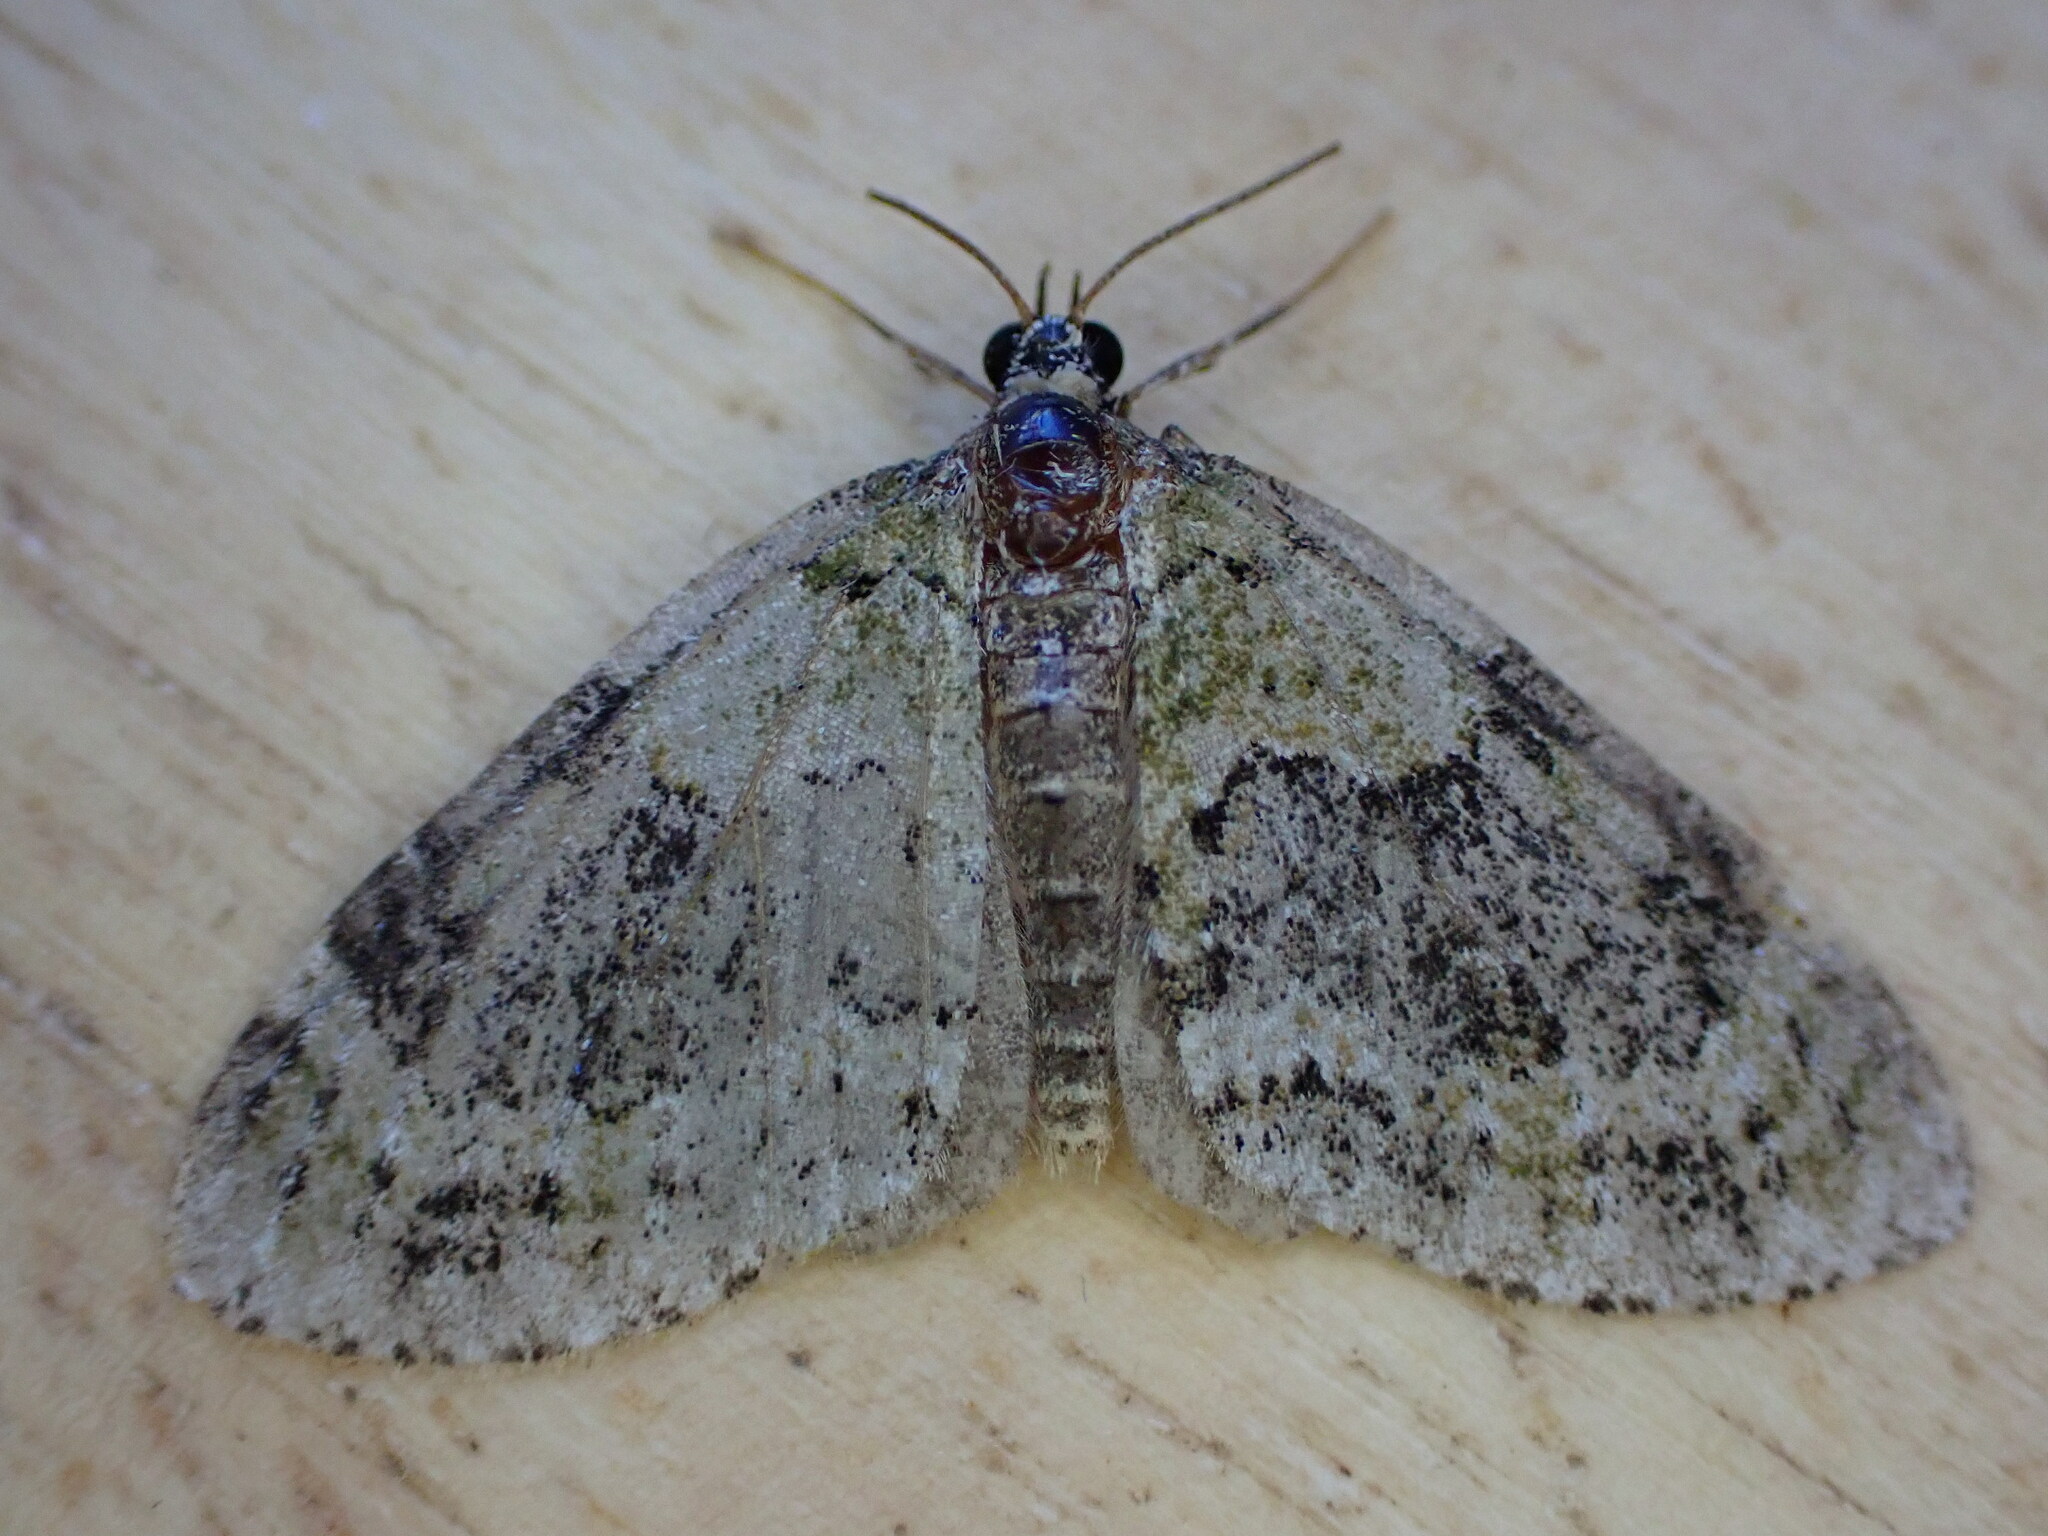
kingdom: Animalia
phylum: Arthropoda
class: Insecta
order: Lepidoptera
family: Geometridae
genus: Acasis
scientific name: Acasis viretata
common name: Yellow-barred brindle
